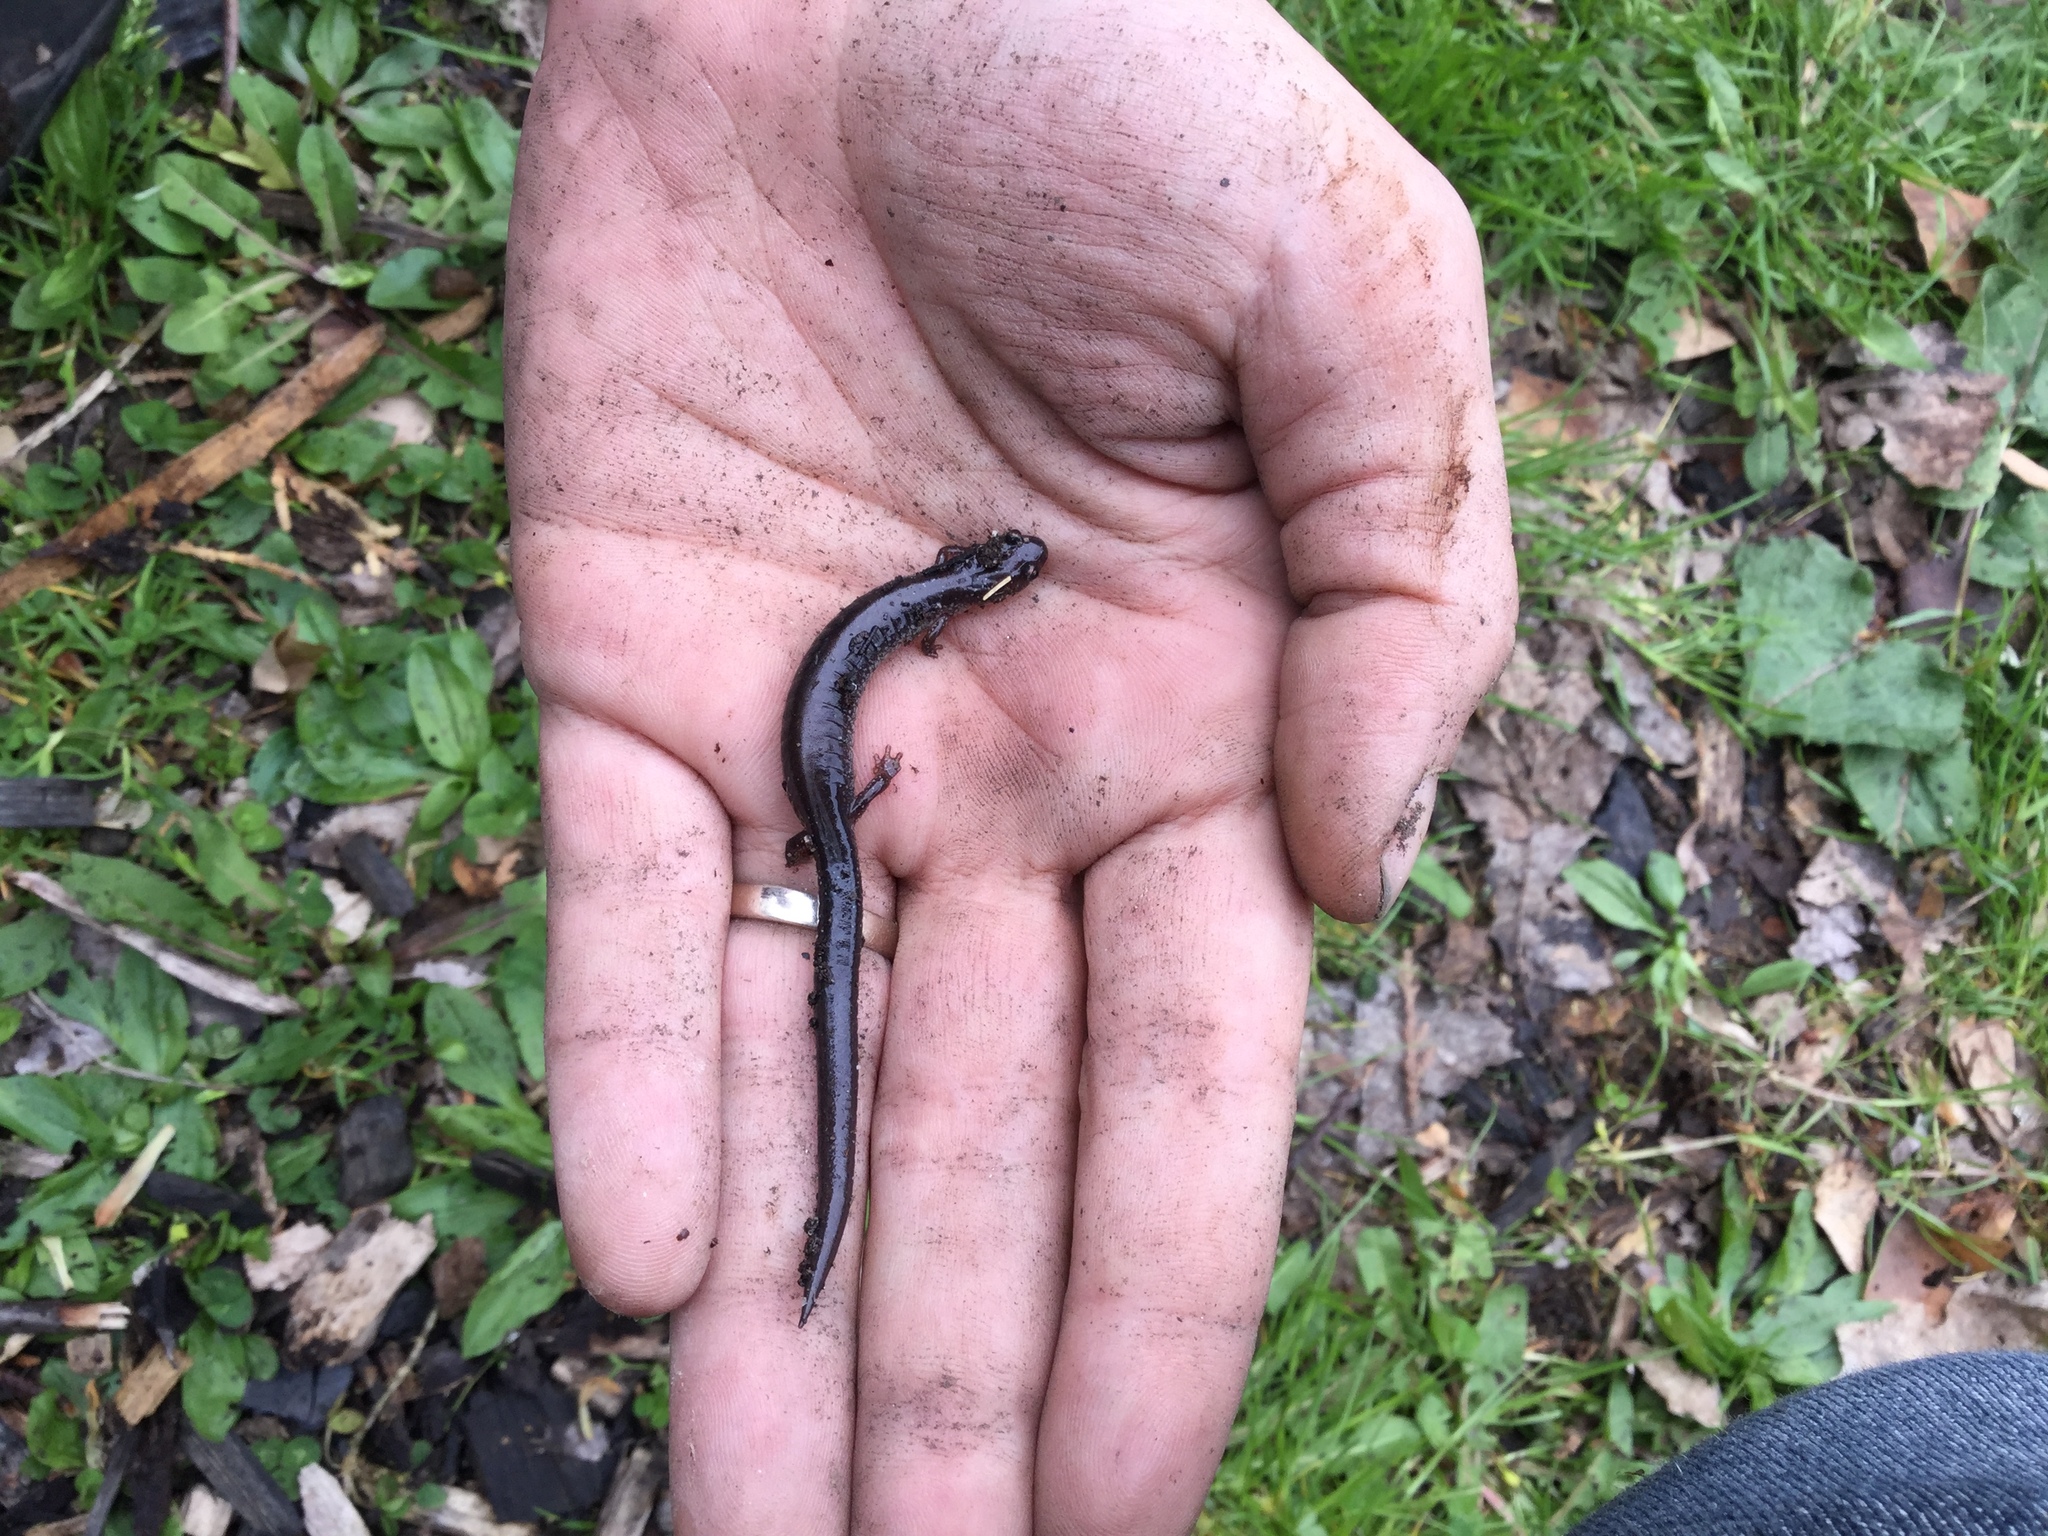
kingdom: Animalia
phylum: Chordata
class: Amphibia
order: Caudata
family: Plethodontidae
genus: Plethodon
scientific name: Plethodon cinereus
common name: Redback salamander
